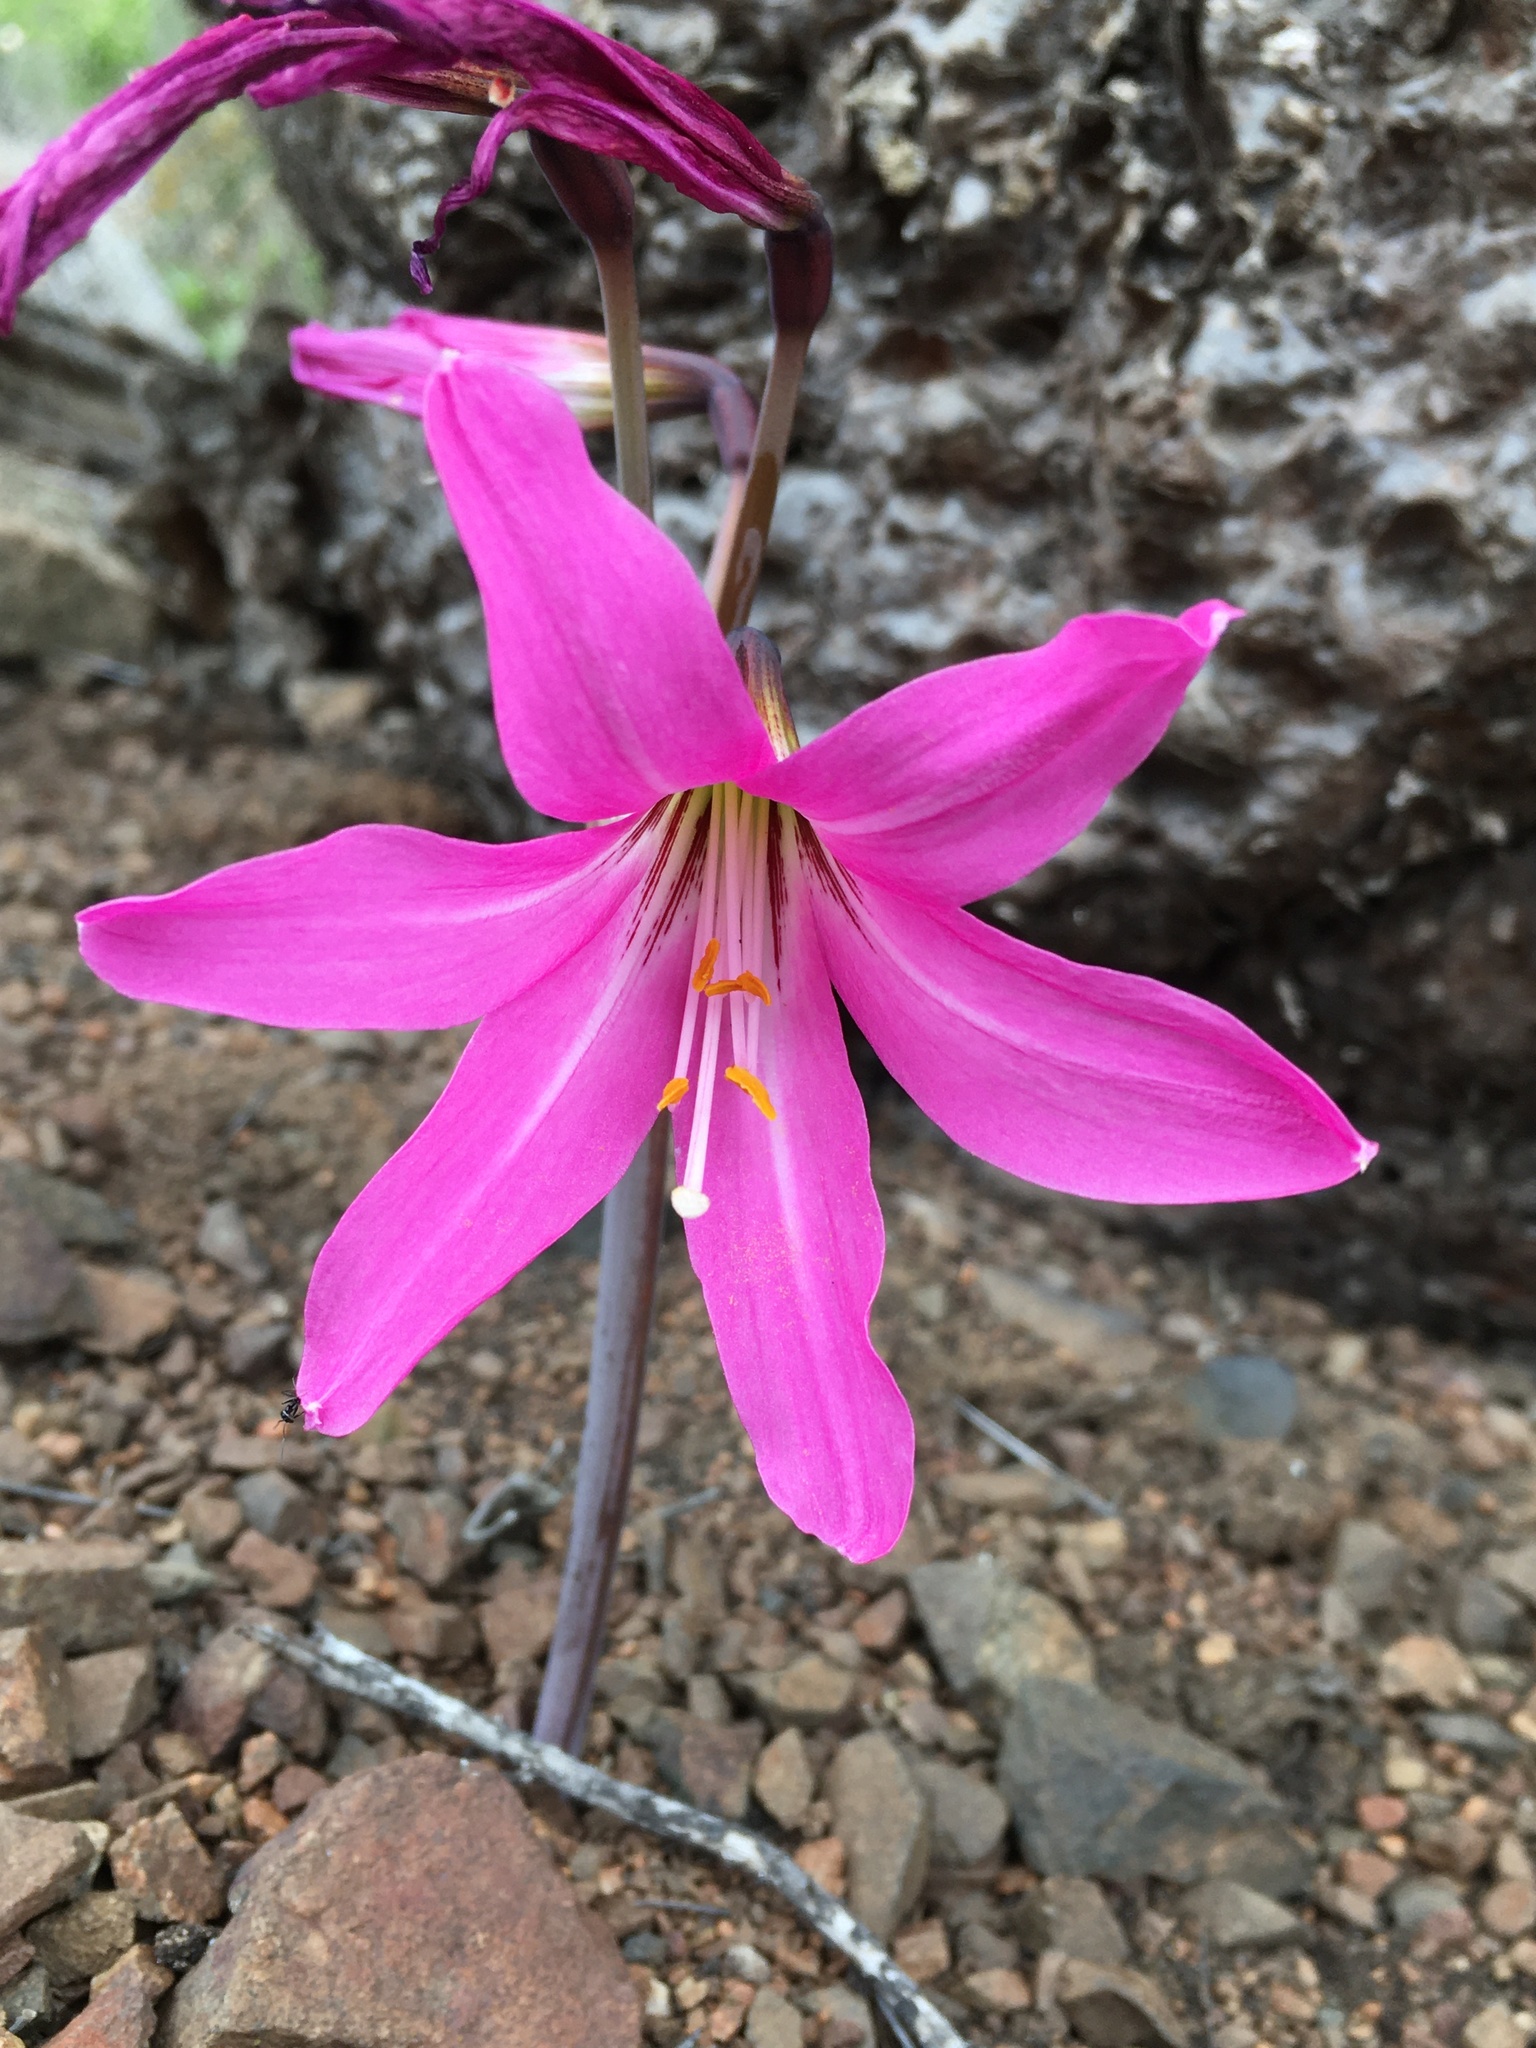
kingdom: Plantae
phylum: Tracheophyta
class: Liliopsida
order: Asparagales
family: Amaryllidaceae
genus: Paposoa
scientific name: Paposoa laeta
